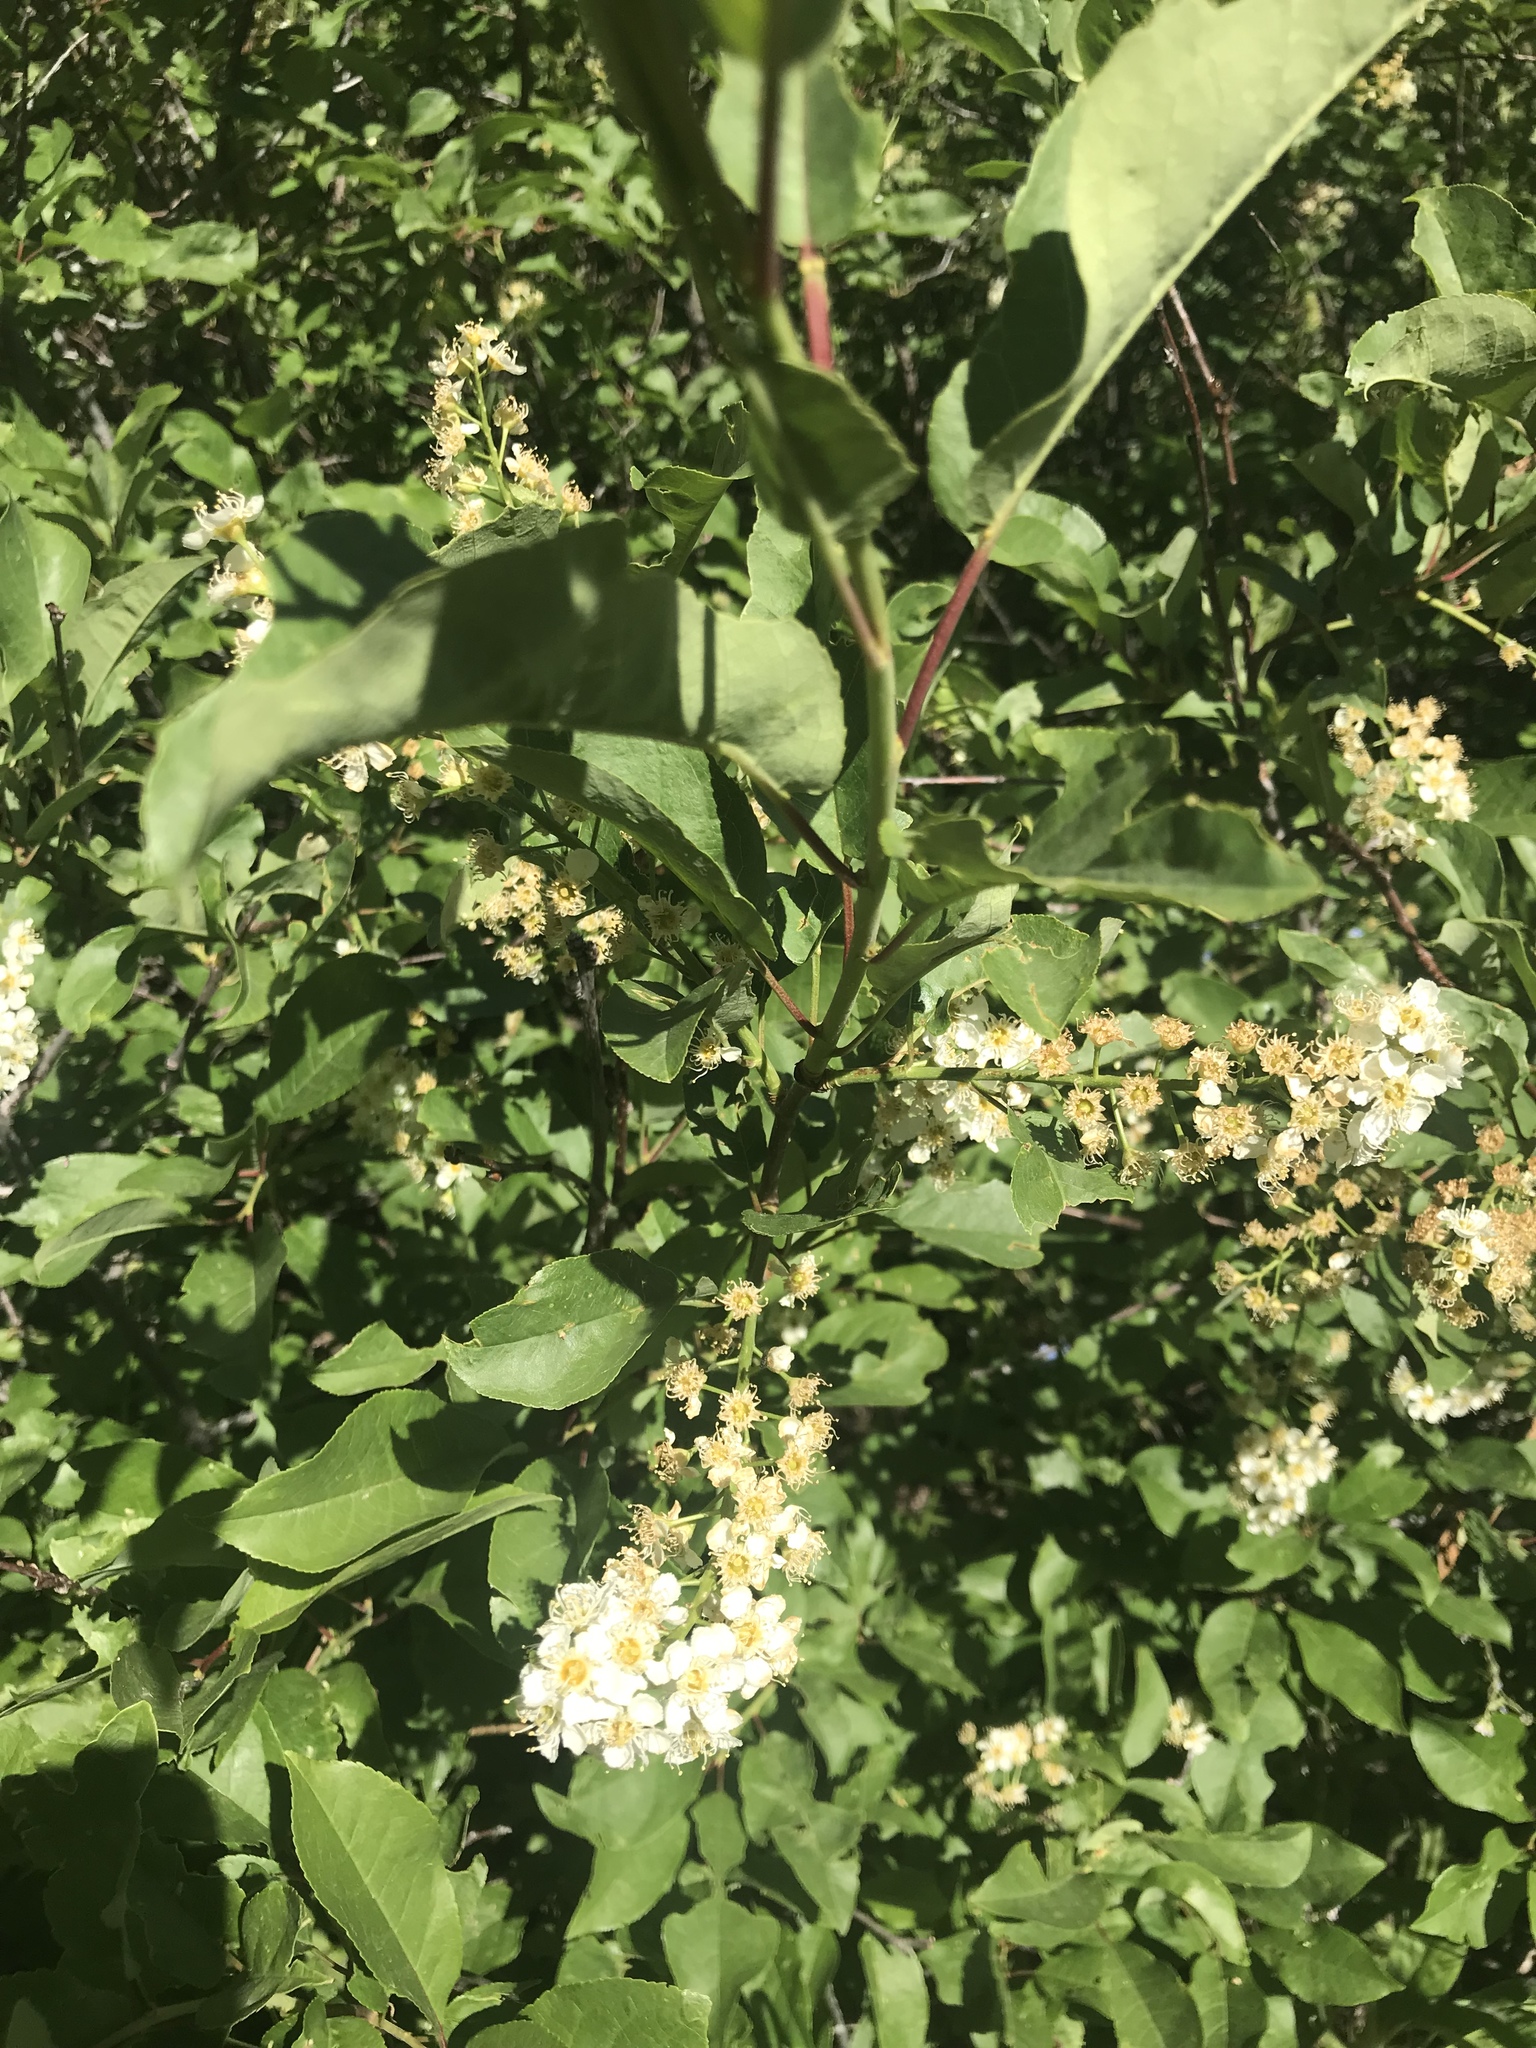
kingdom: Plantae
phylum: Tracheophyta
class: Magnoliopsida
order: Rosales
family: Rosaceae
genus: Prunus
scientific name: Prunus virginiana
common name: Chokecherry
